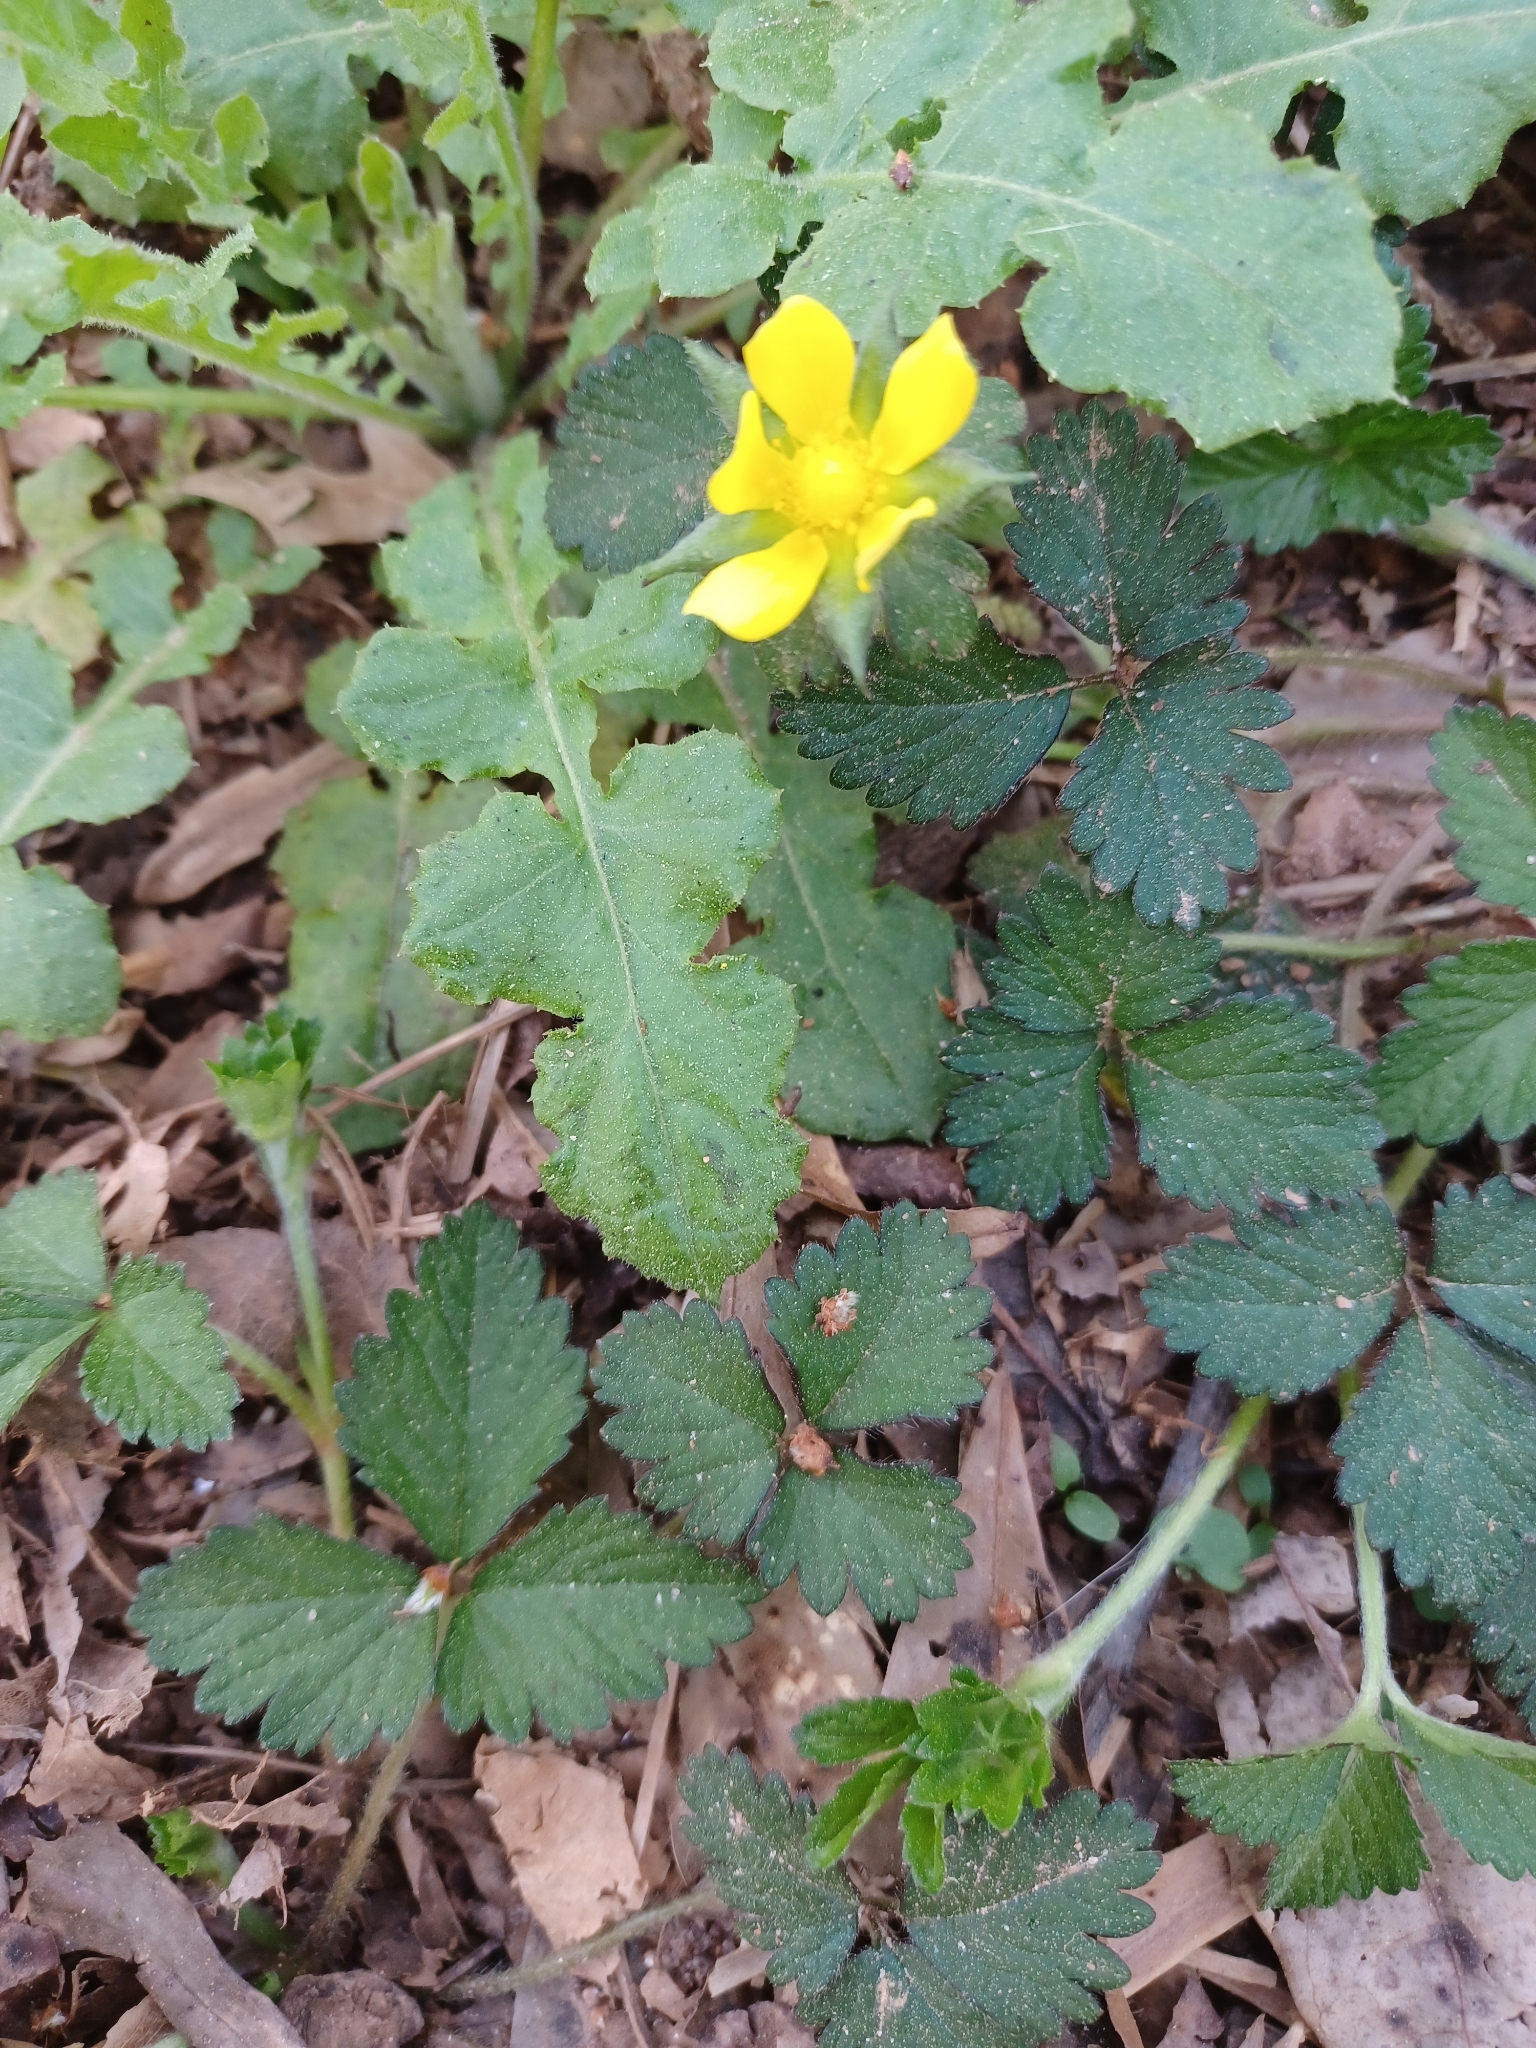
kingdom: Plantae
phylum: Tracheophyta
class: Magnoliopsida
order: Rosales
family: Rosaceae
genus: Potentilla
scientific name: Potentilla indica
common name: Yellow-flowered strawberry
